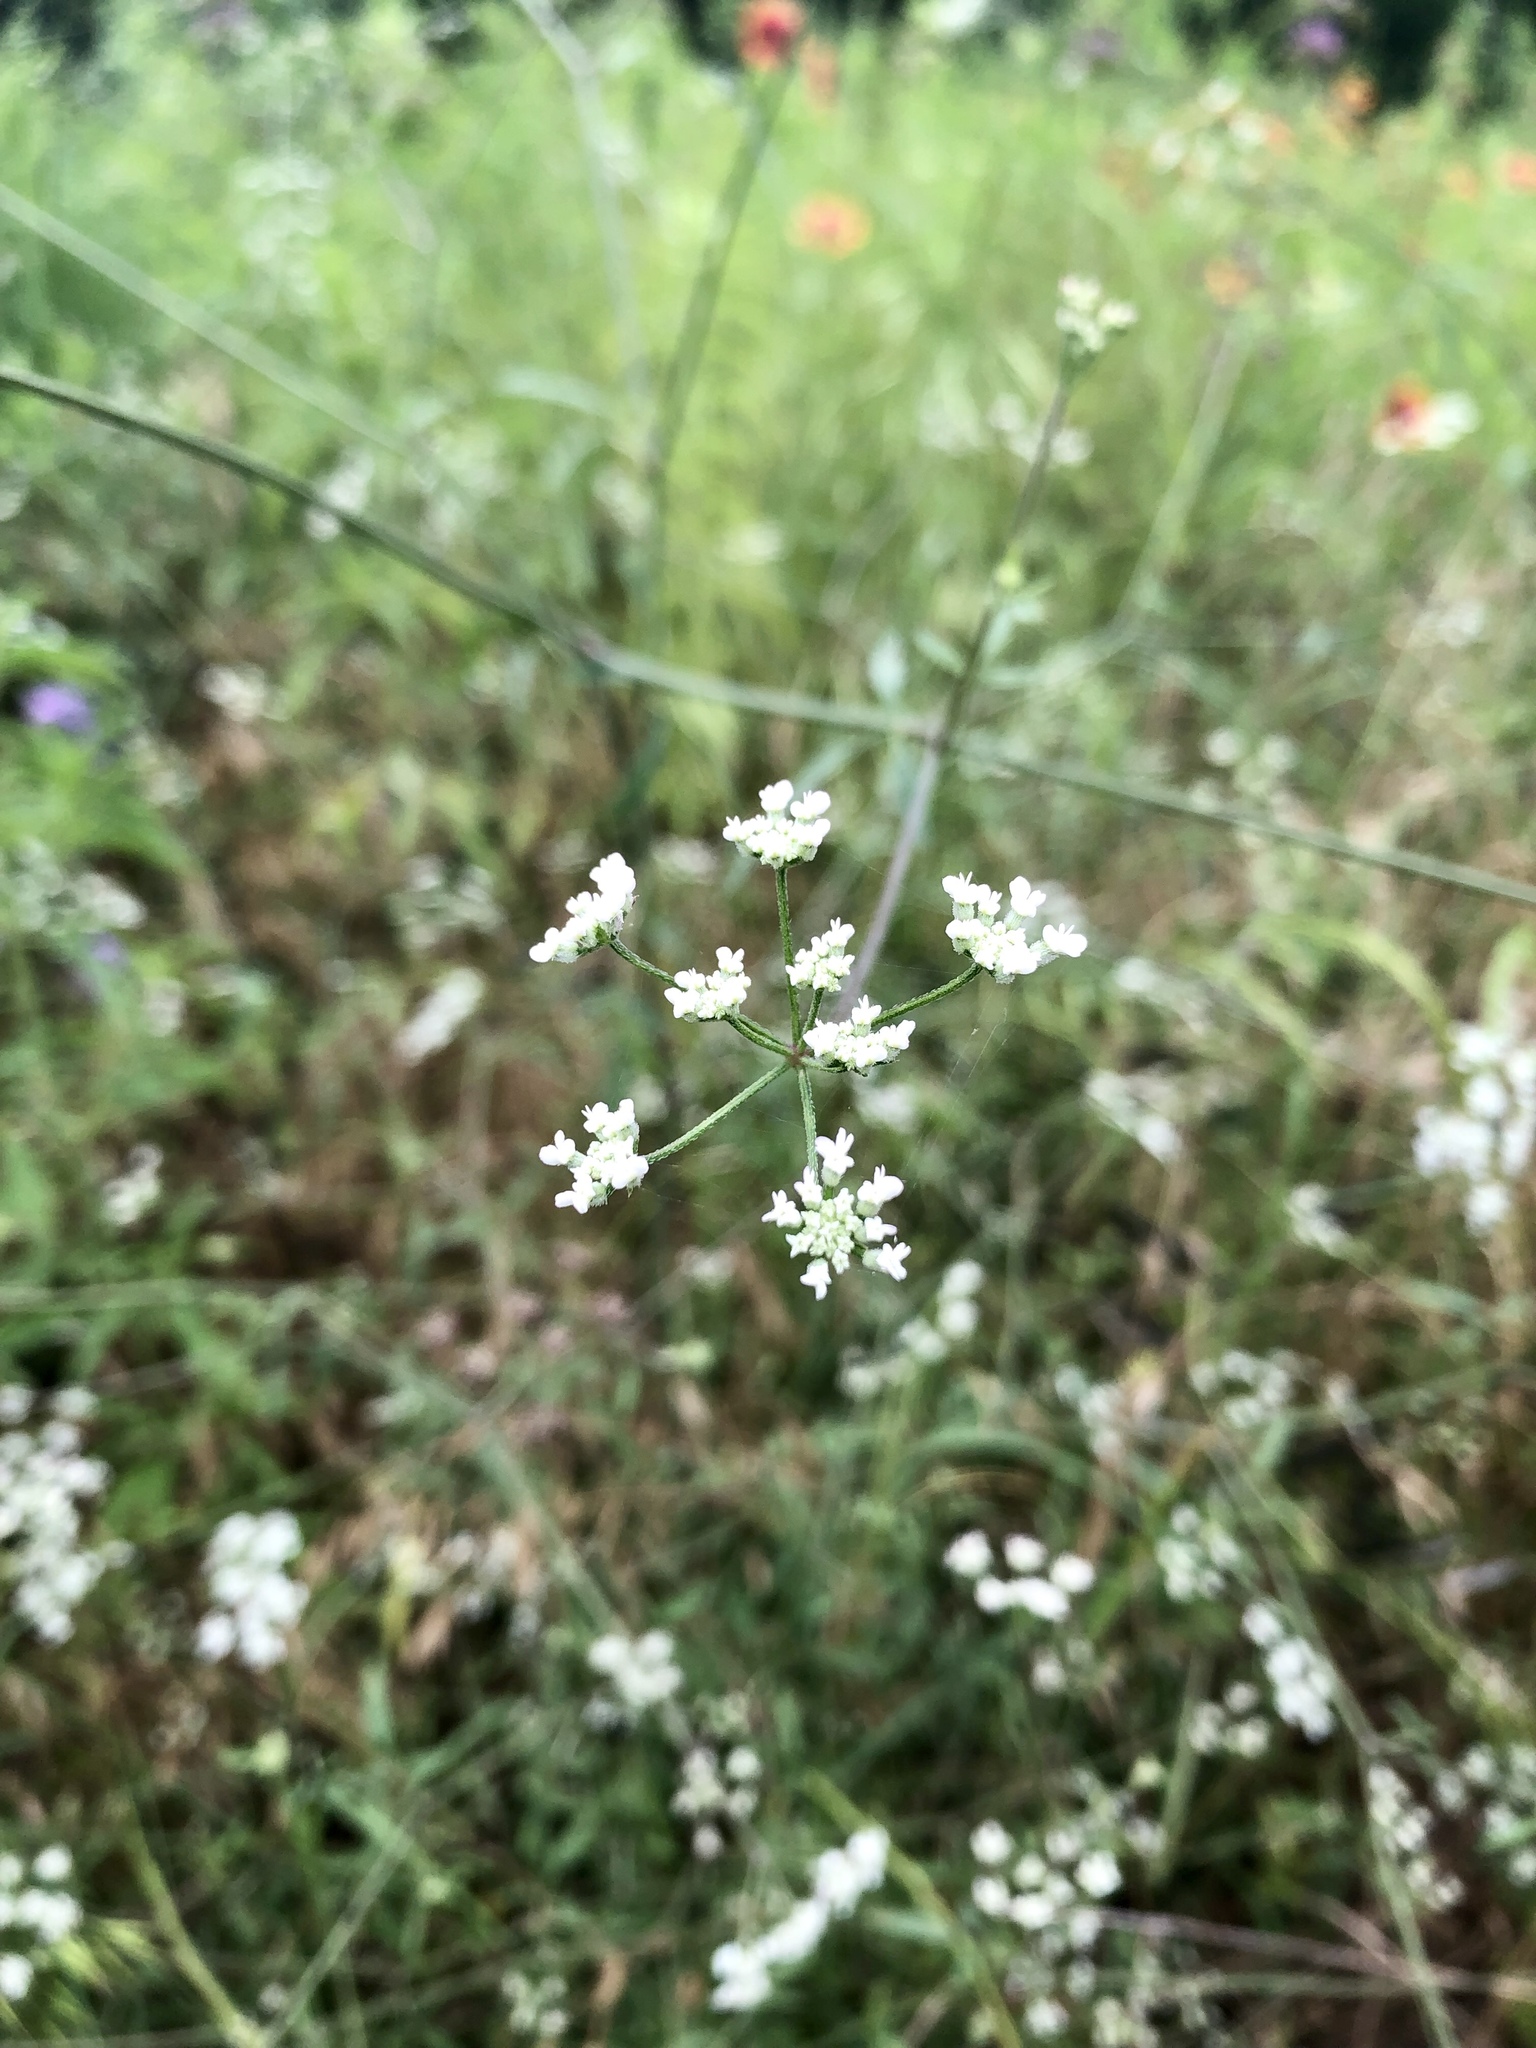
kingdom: Plantae
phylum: Tracheophyta
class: Magnoliopsida
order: Apiales
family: Apiaceae
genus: Torilis
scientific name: Torilis arvensis
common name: Spreading hedge-parsley
